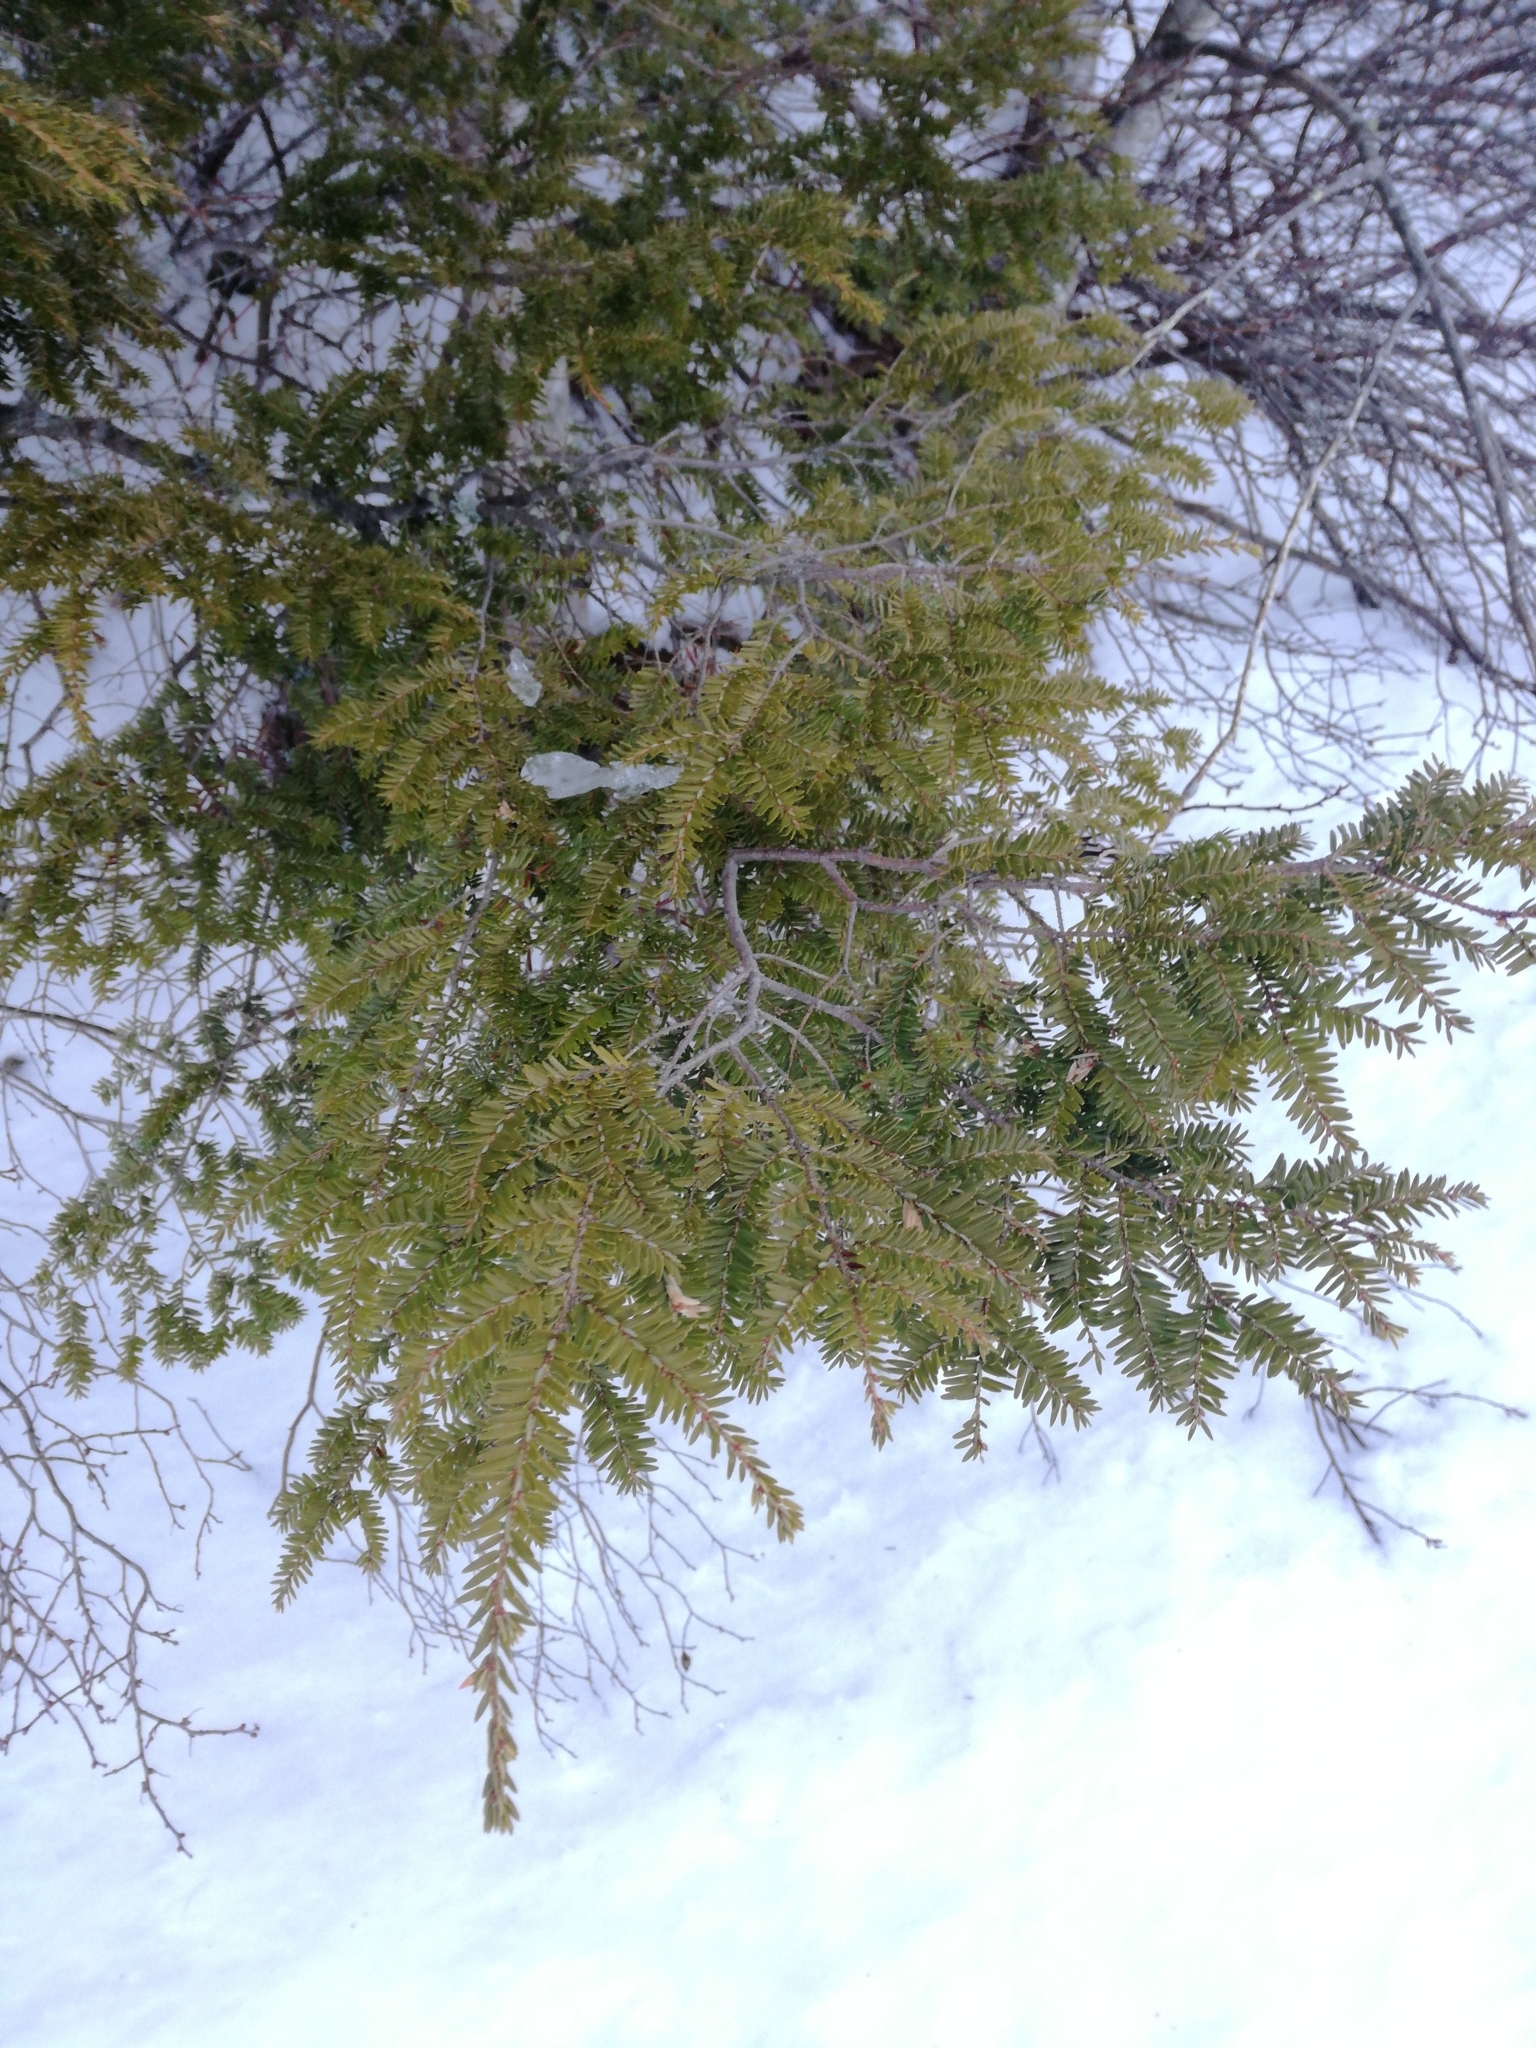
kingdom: Plantae
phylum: Tracheophyta
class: Pinopsida
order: Pinales
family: Pinaceae
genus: Tsuga
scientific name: Tsuga canadensis
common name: Eastern hemlock
